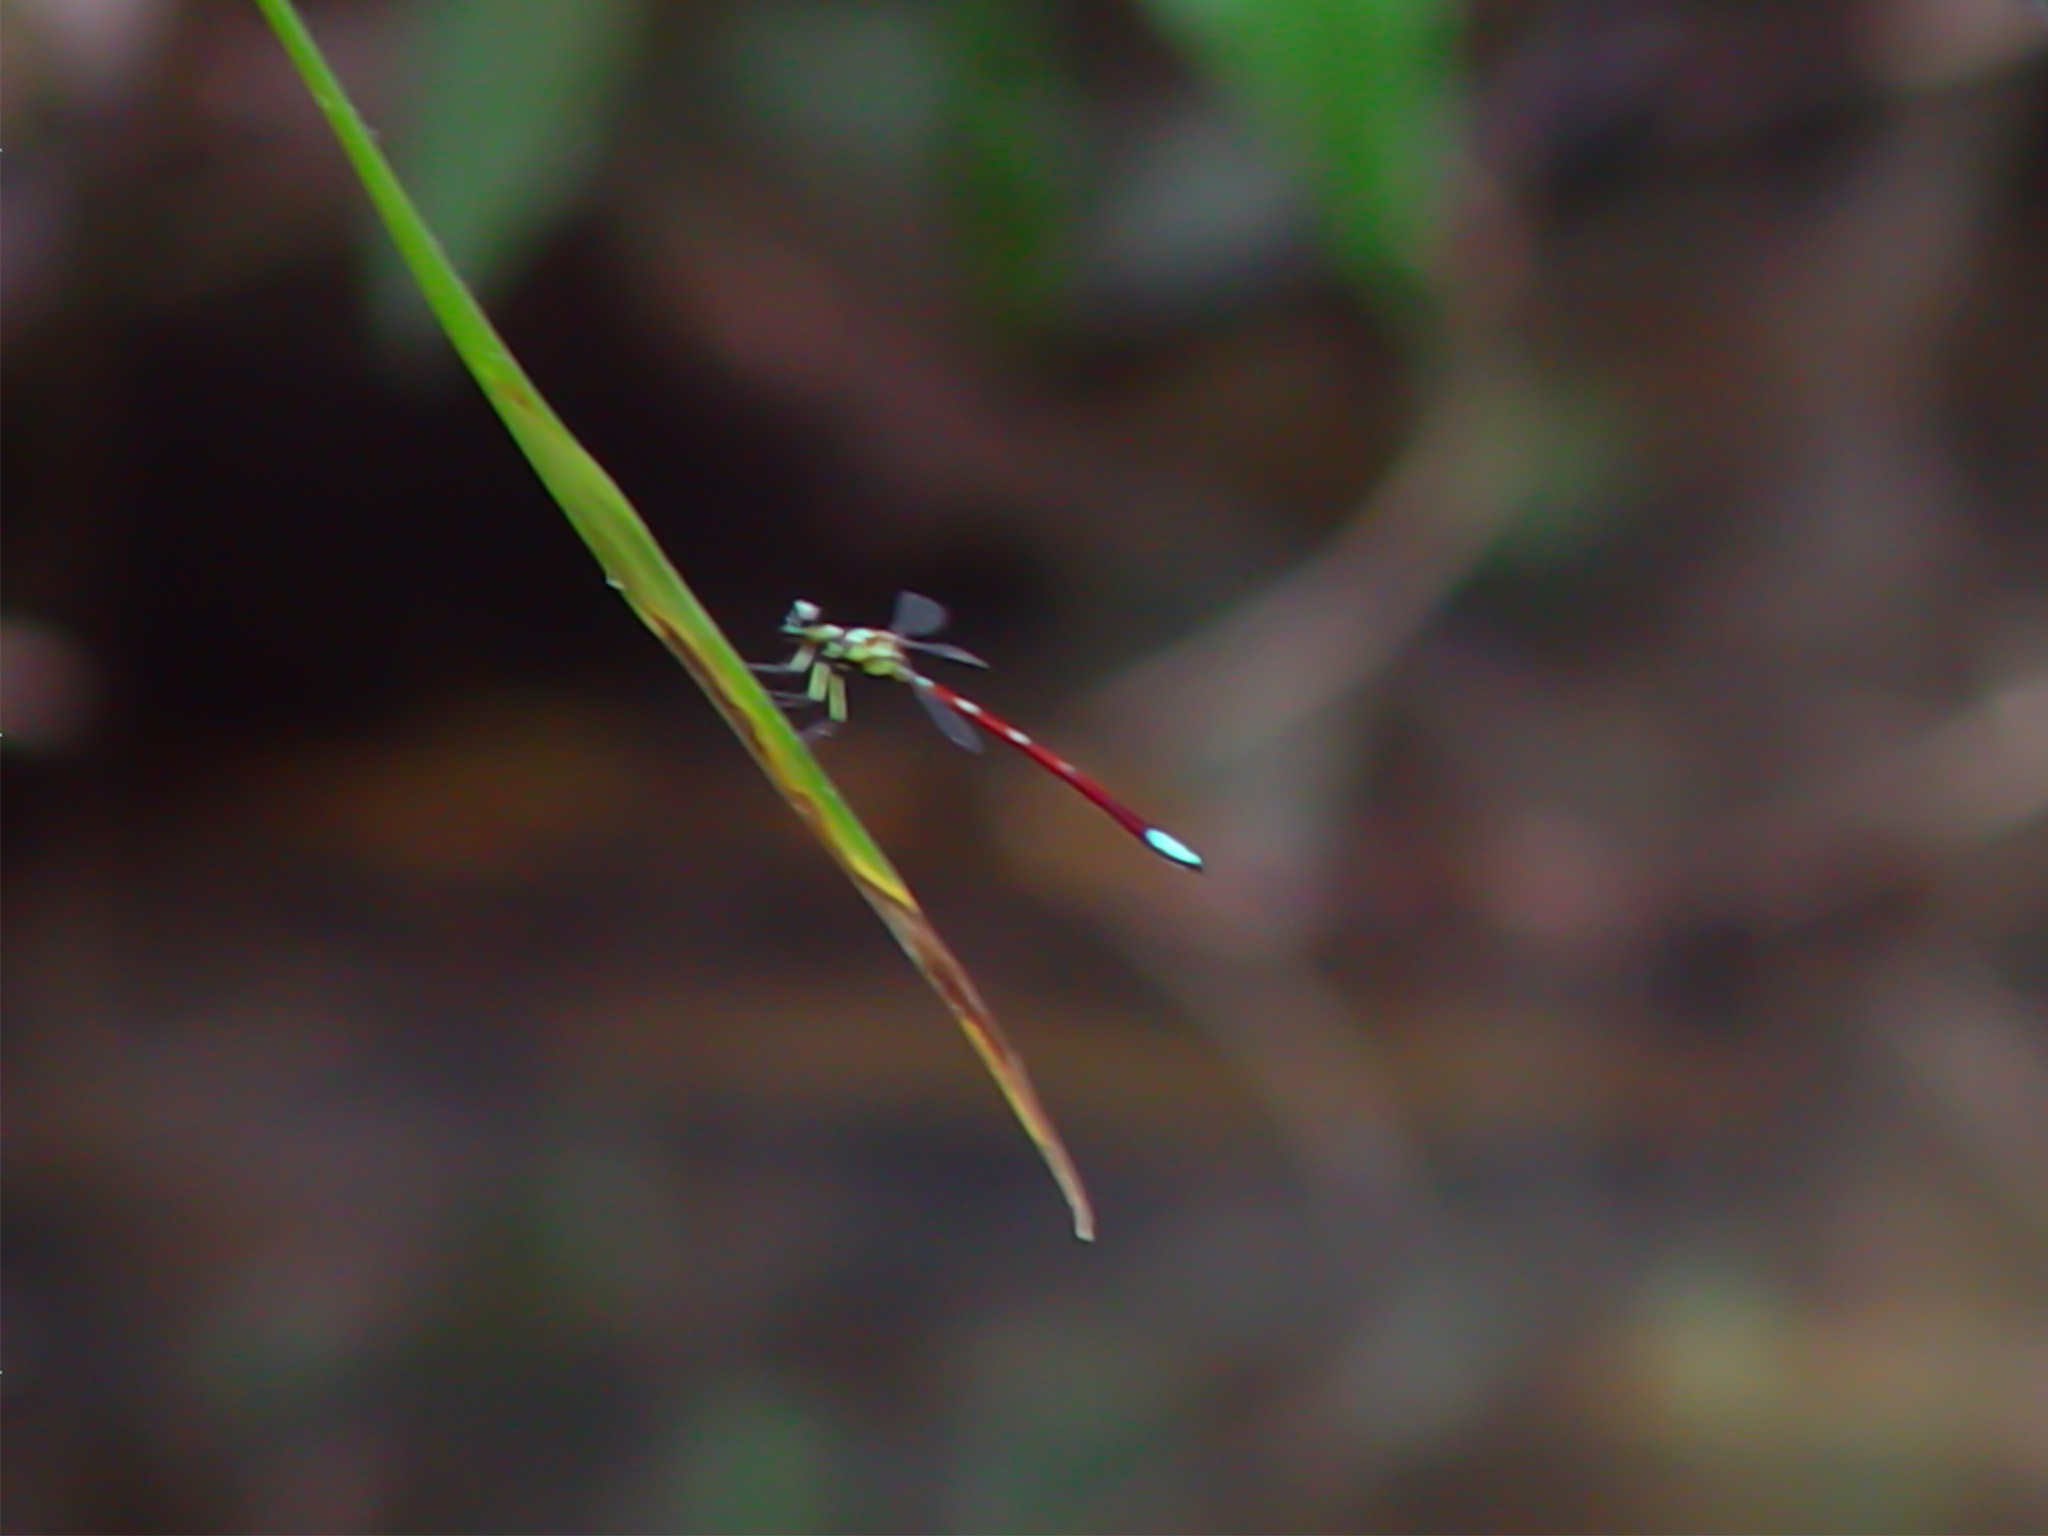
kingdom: Animalia
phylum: Arthropoda
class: Insecta
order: Odonata
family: Philosinidae
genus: Rhinagrion
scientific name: Rhinagrion macrocephalum
